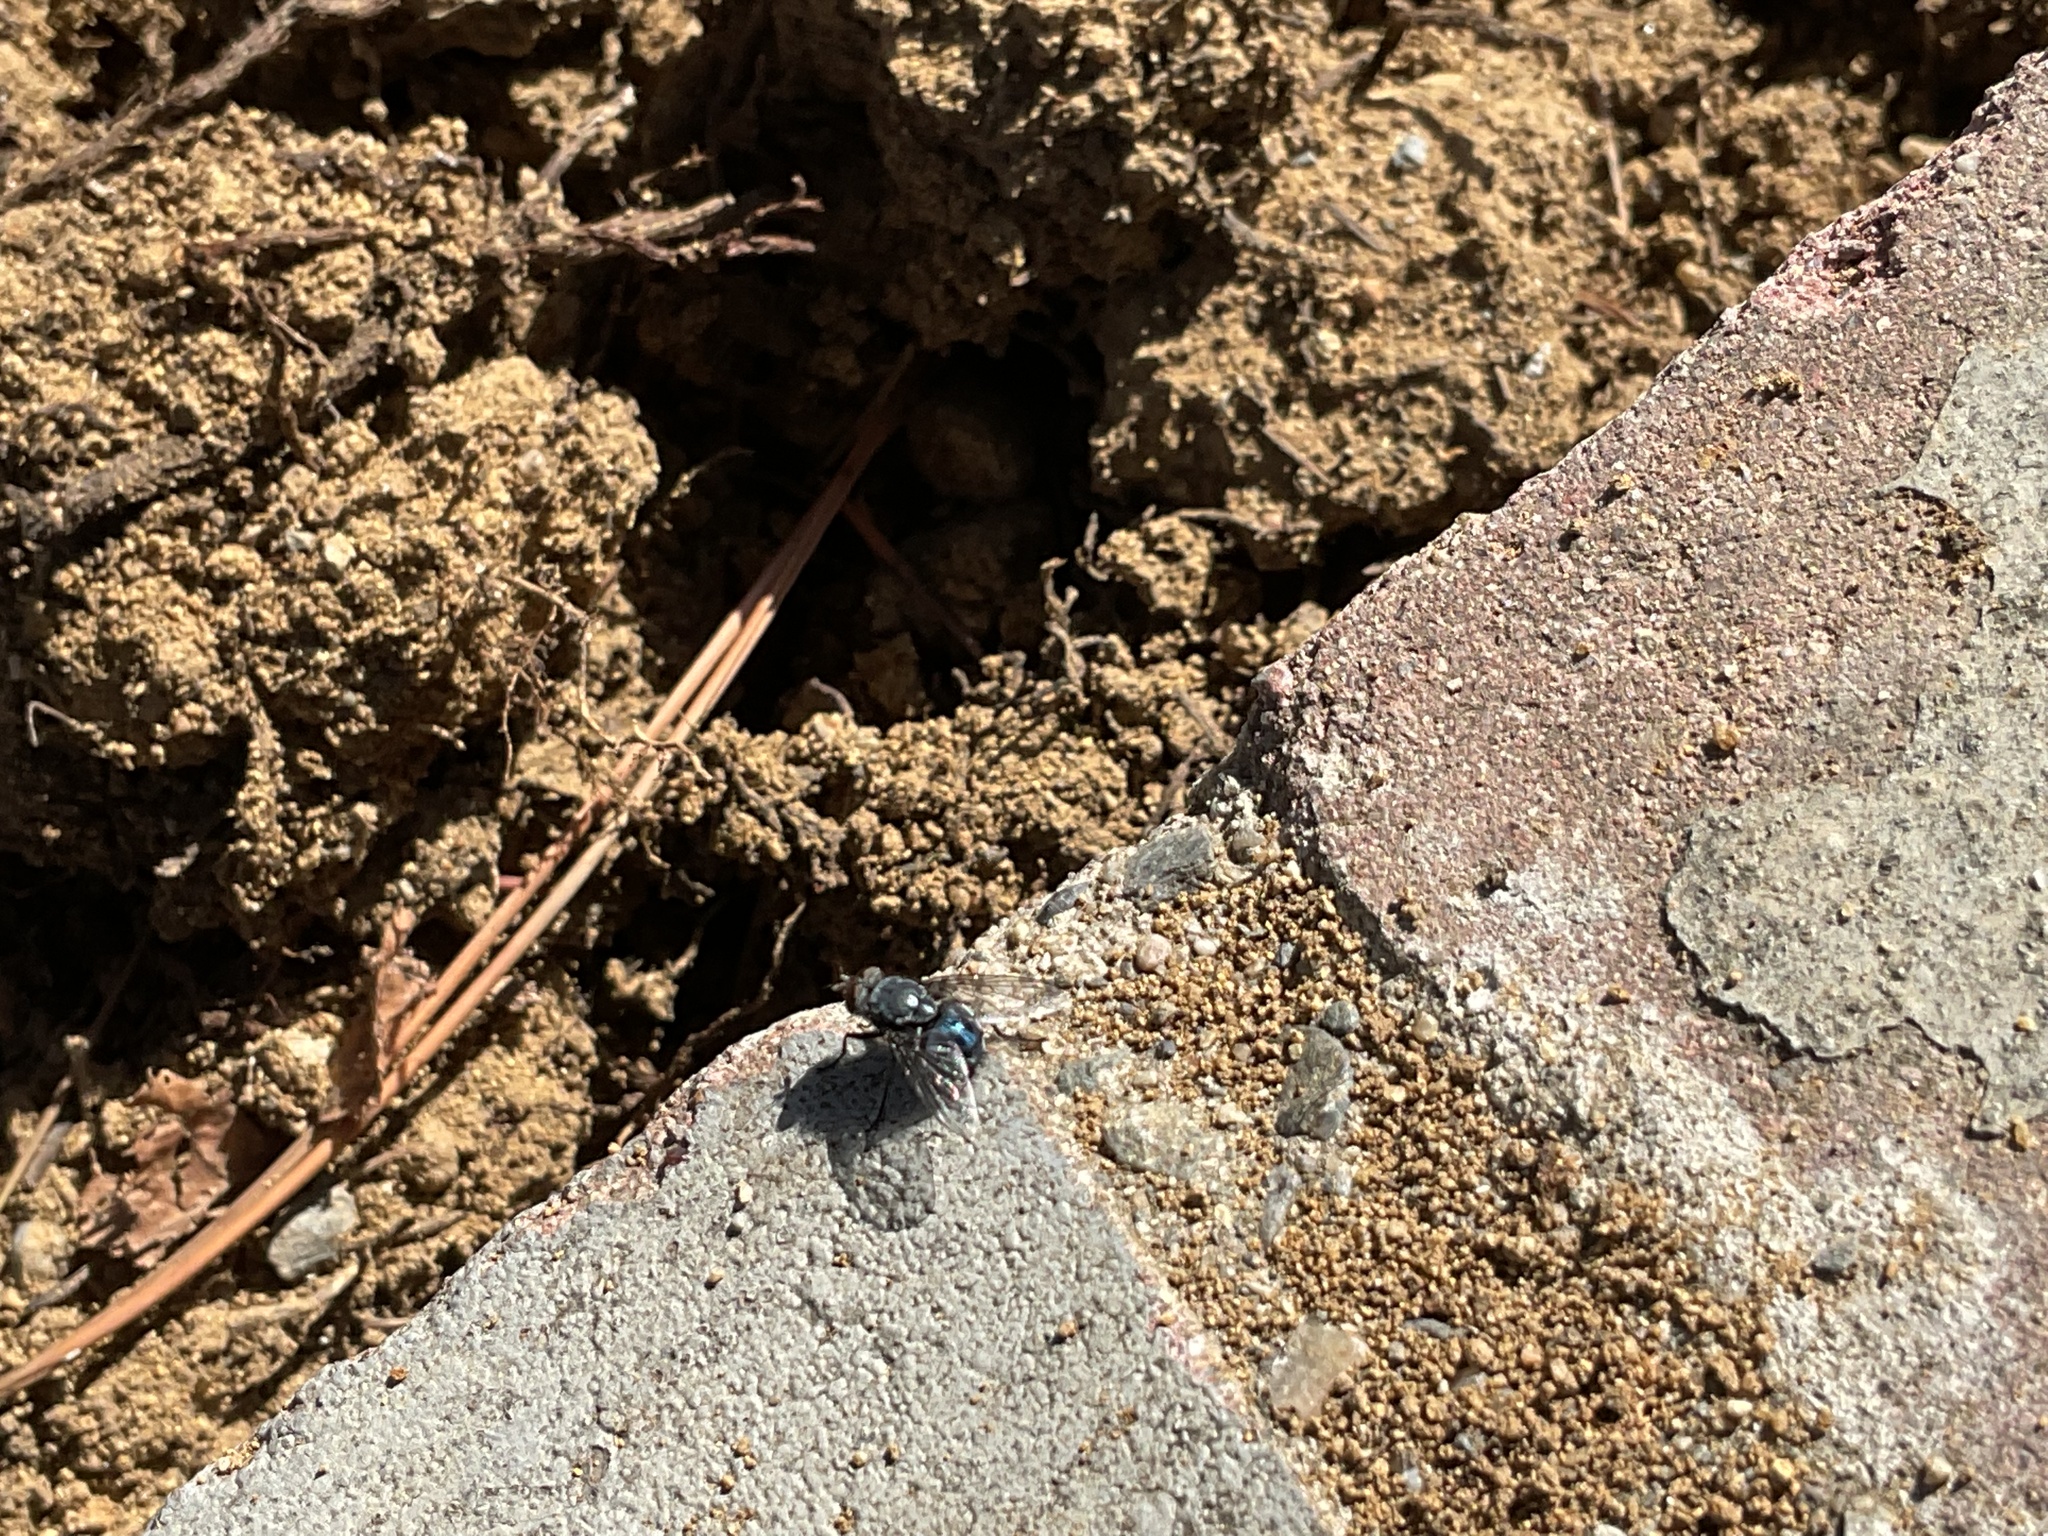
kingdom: Animalia
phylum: Arthropoda
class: Insecta
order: Diptera
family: Calliphoridae
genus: Calliphora
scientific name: Calliphora vicina
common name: Common blow flie
